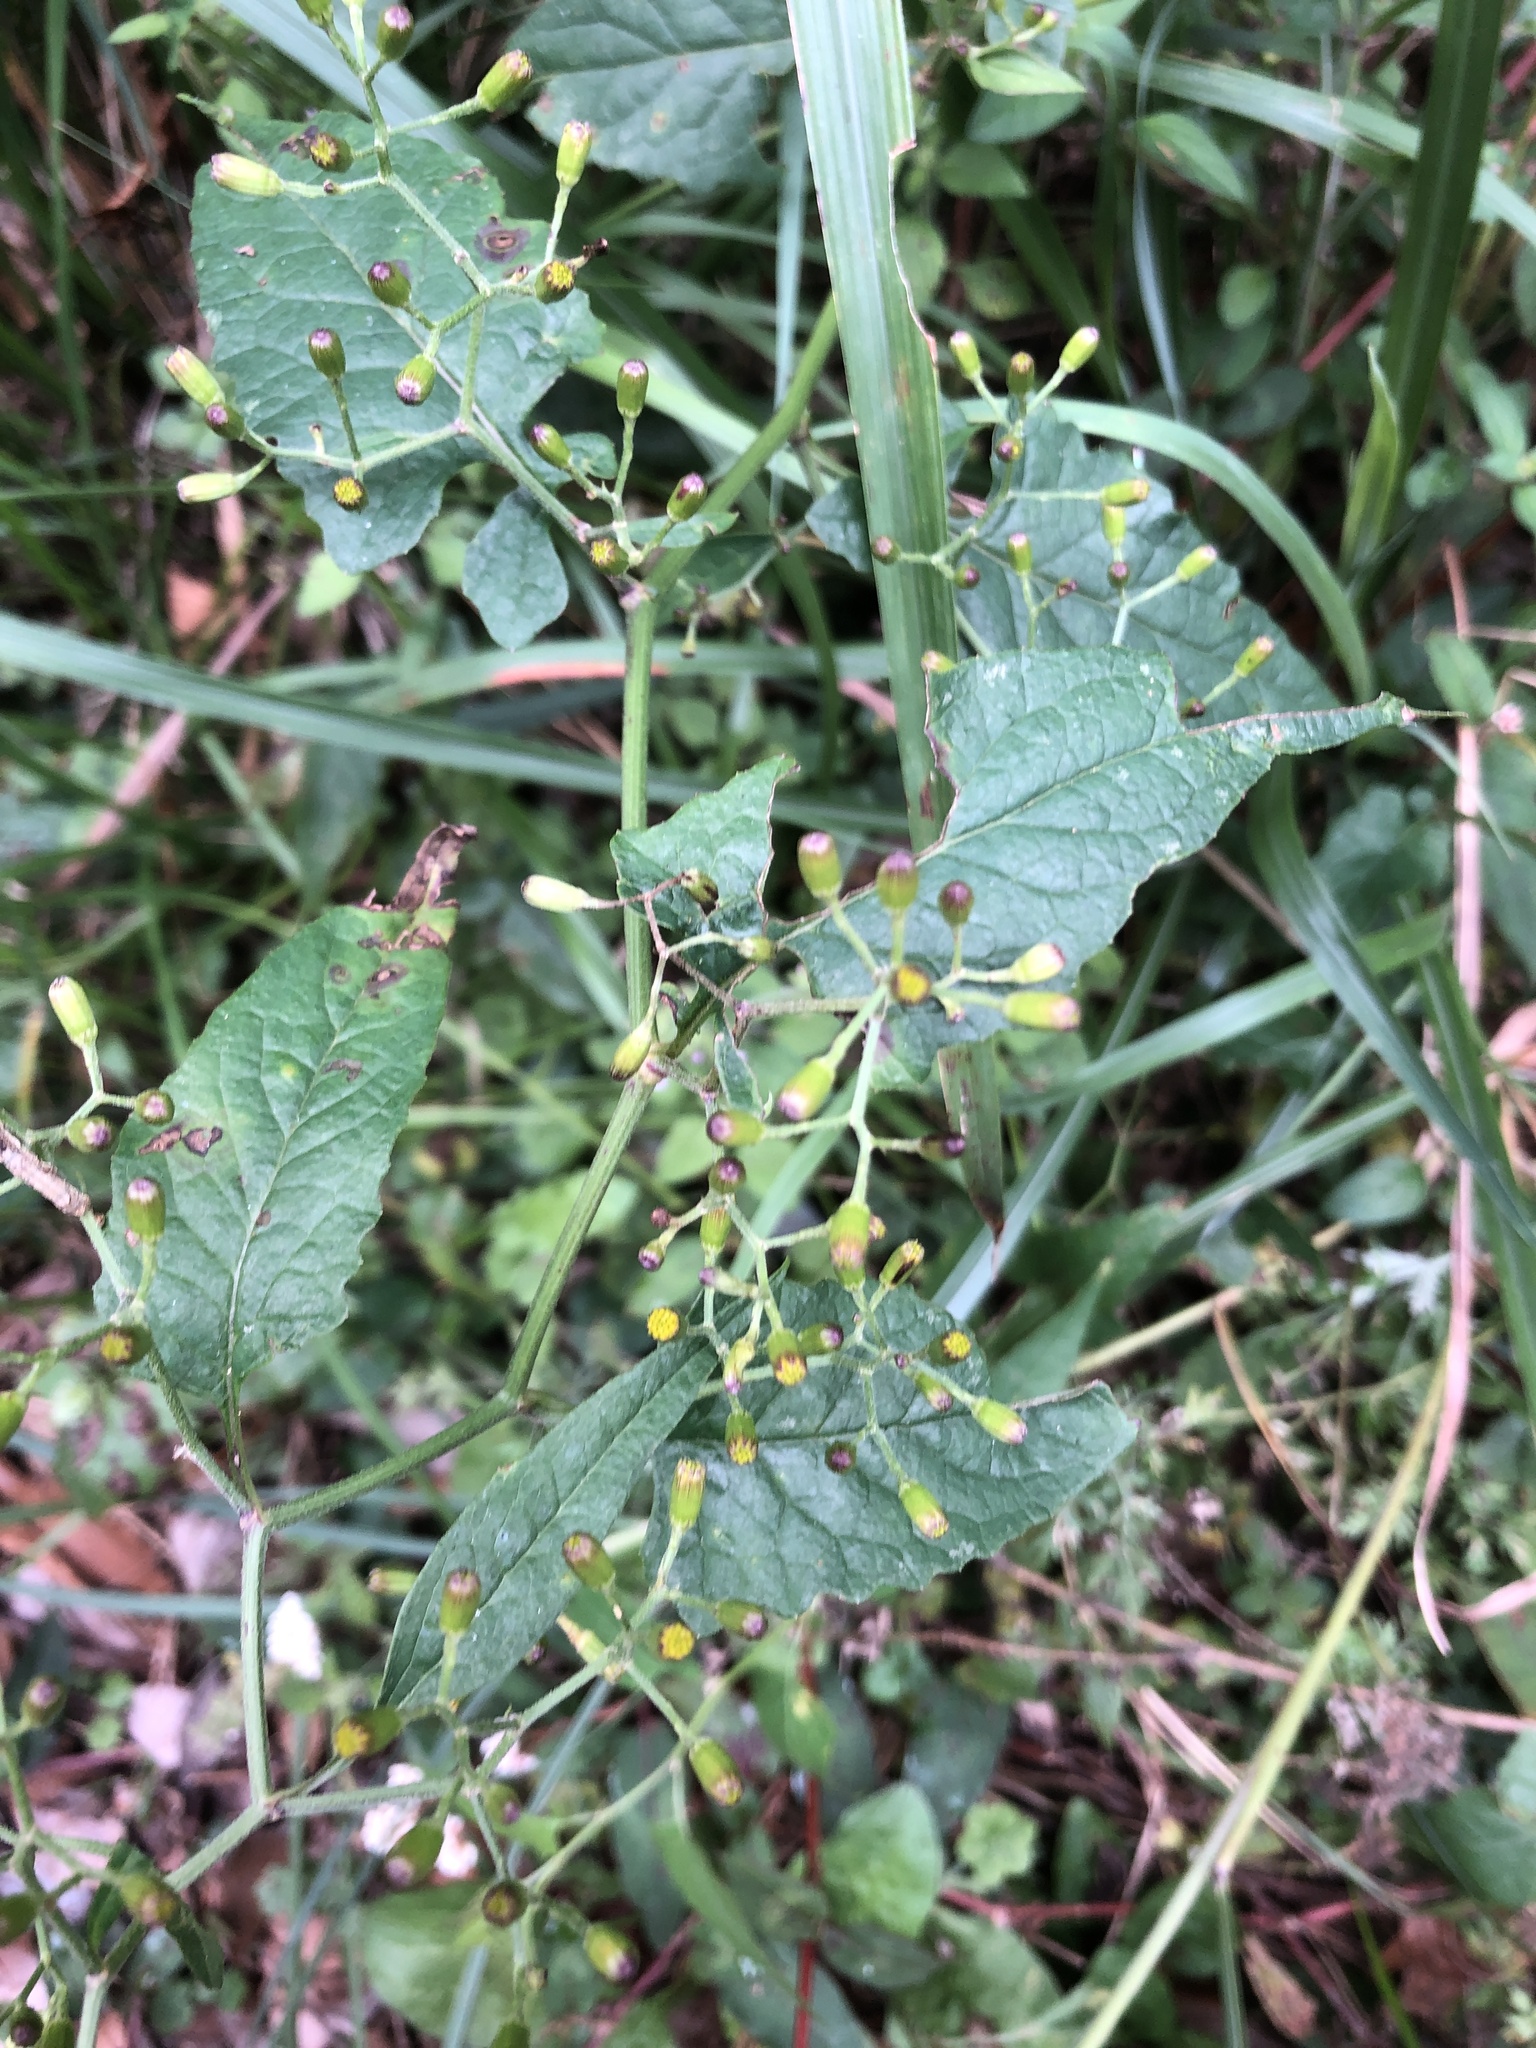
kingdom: Plantae
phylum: Tracheophyta
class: Magnoliopsida
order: Asterales
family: Asteraceae
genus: Senecio
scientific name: Senecio scandens
